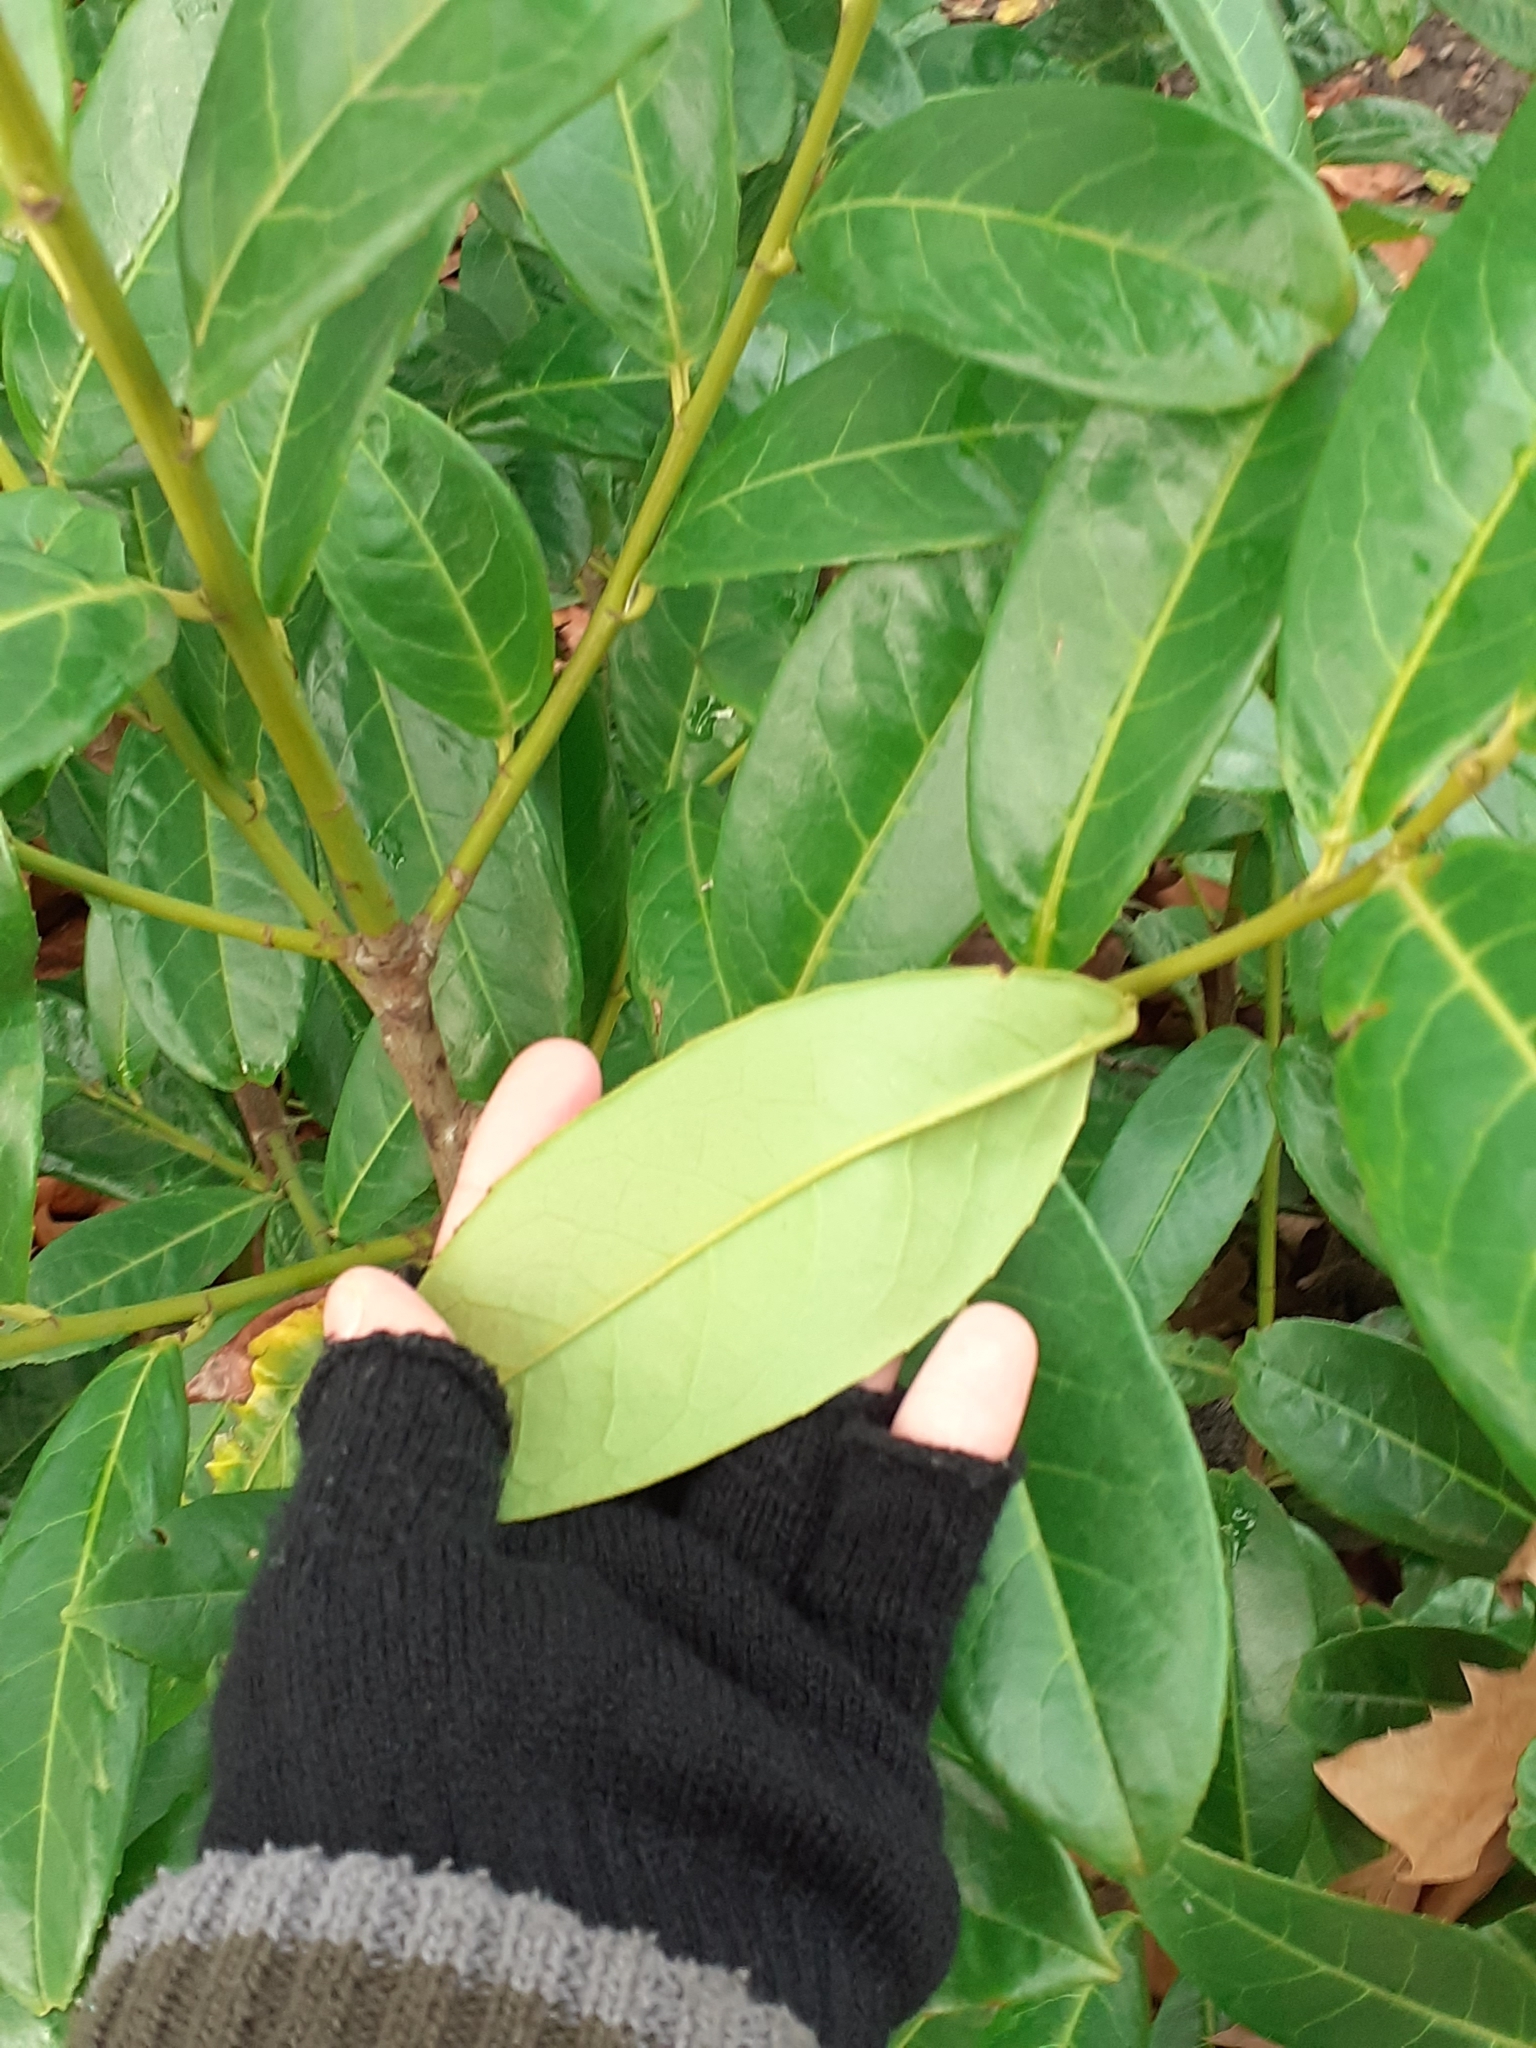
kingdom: Plantae
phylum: Tracheophyta
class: Magnoliopsida
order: Rosales
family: Rosaceae
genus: Prunus
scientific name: Prunus laurocerasus
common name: Cherry laurel
